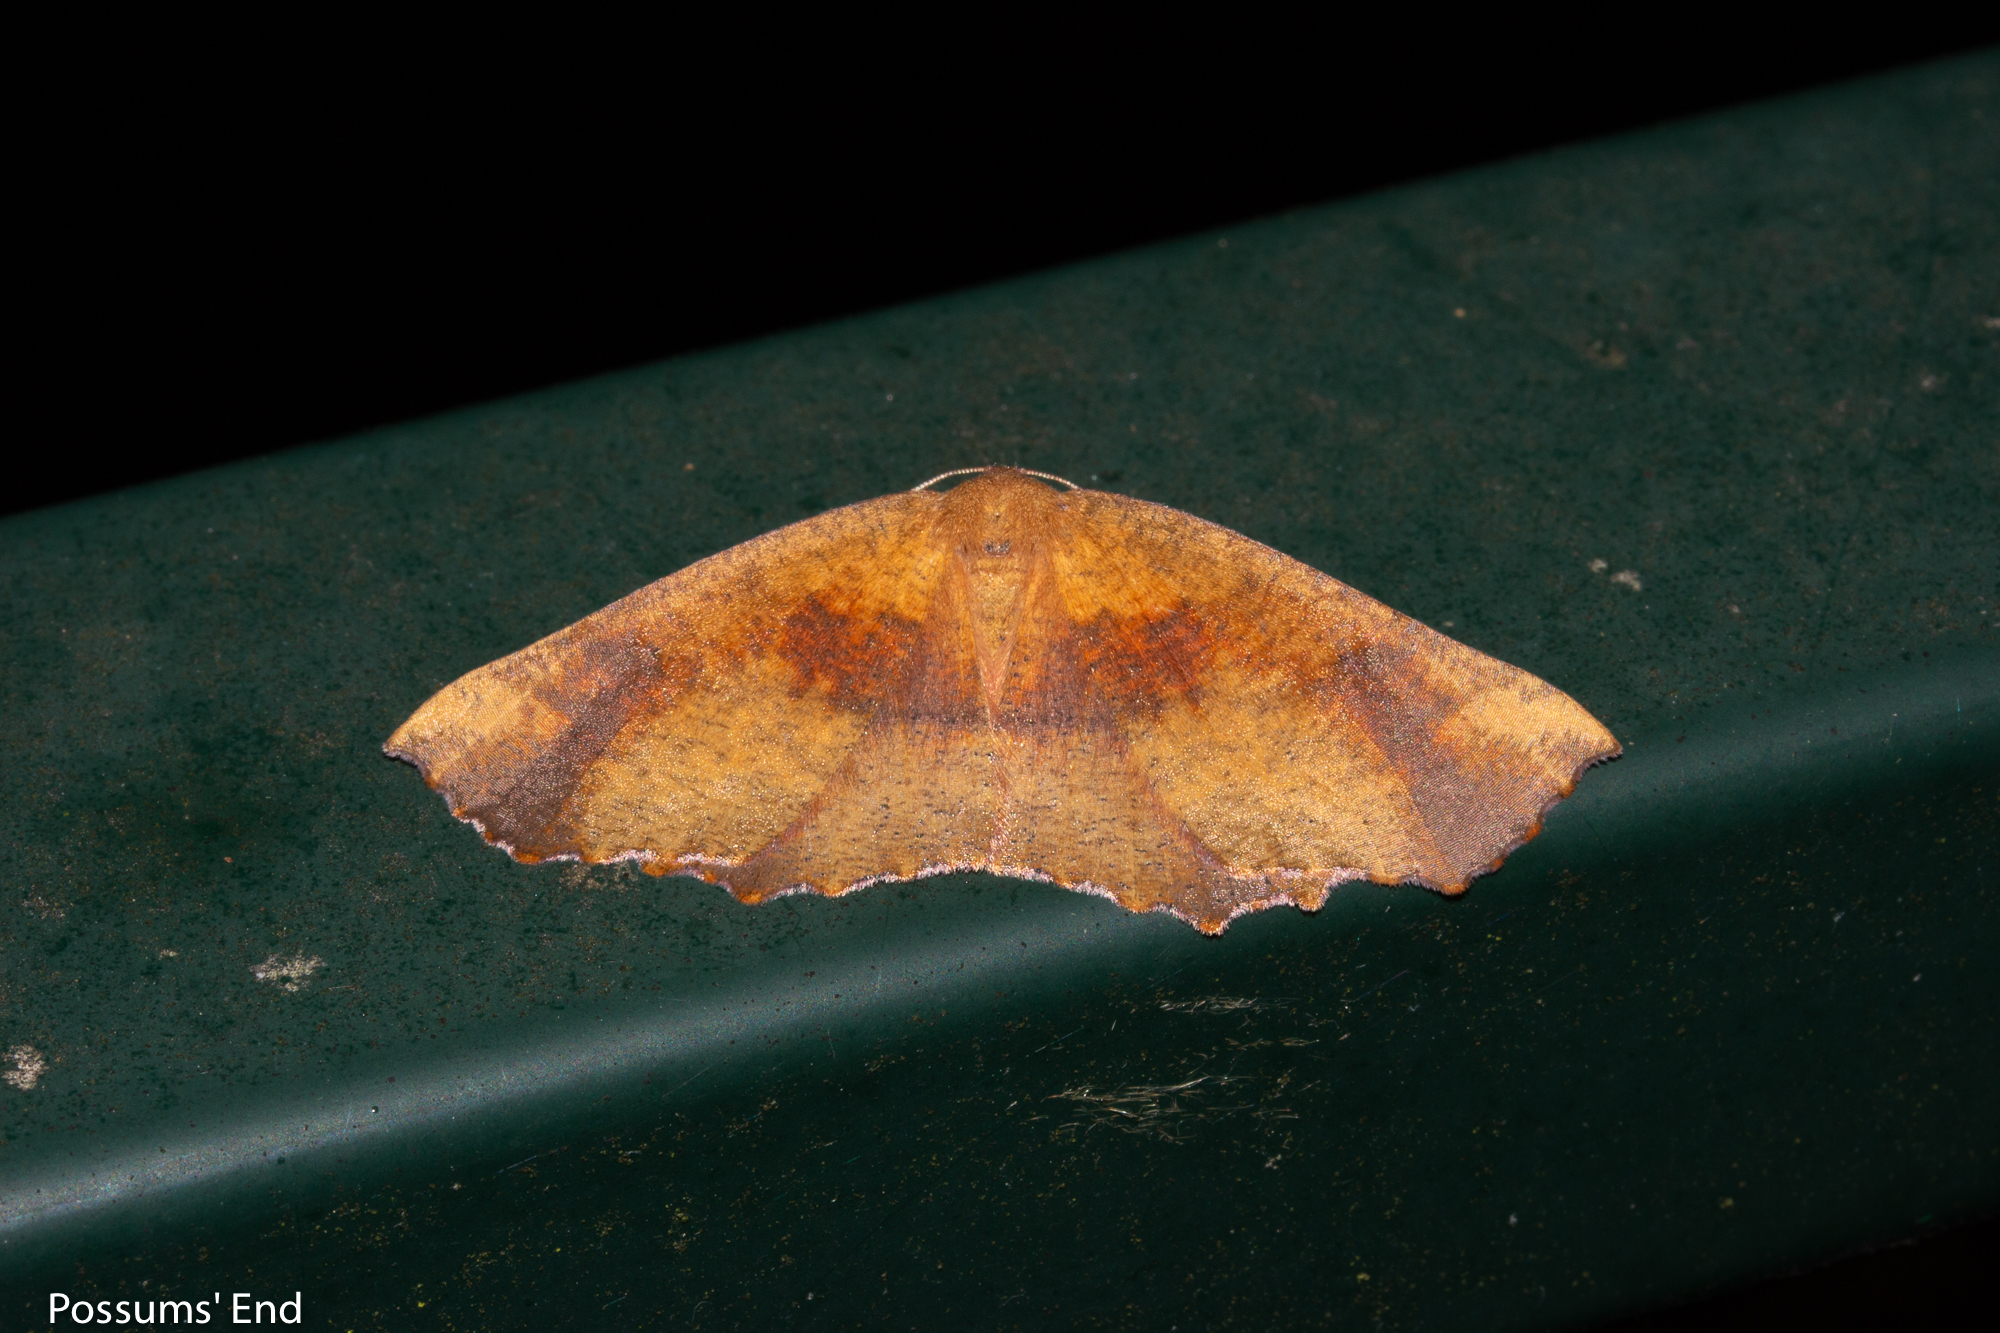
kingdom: Animalia
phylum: Arthropoda
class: Insecta
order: Lepidoptera
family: Geometridae
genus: Xyridacma
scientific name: Xyridacma ustaria
